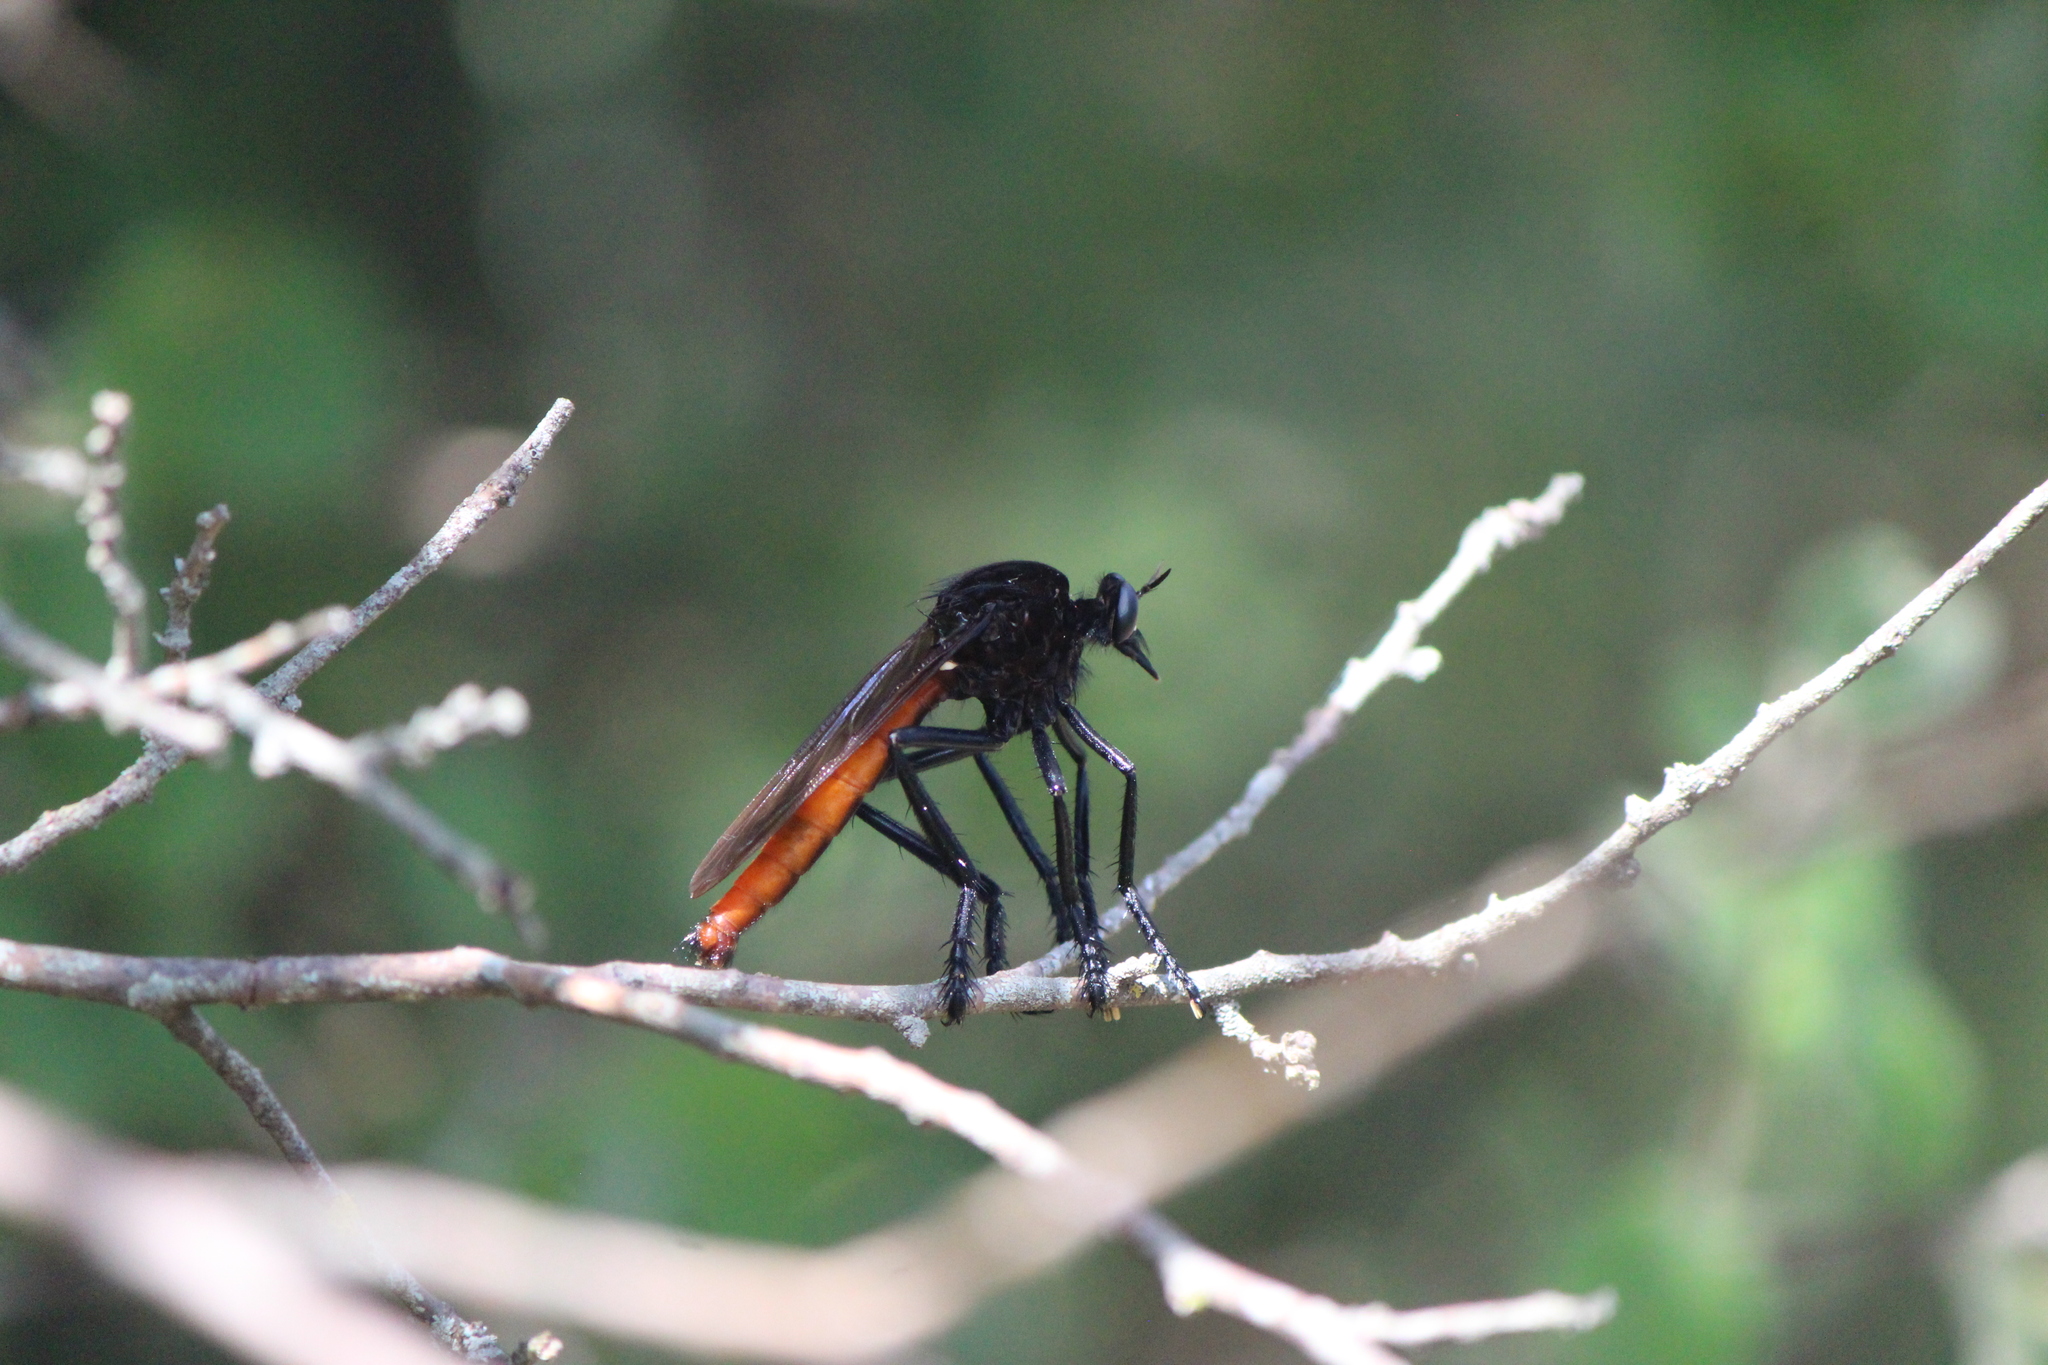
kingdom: Animalia
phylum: Arthropoda
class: Insecta
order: Diptera
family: Asilidae
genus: Archilestris
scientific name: Archilestris magnificus
